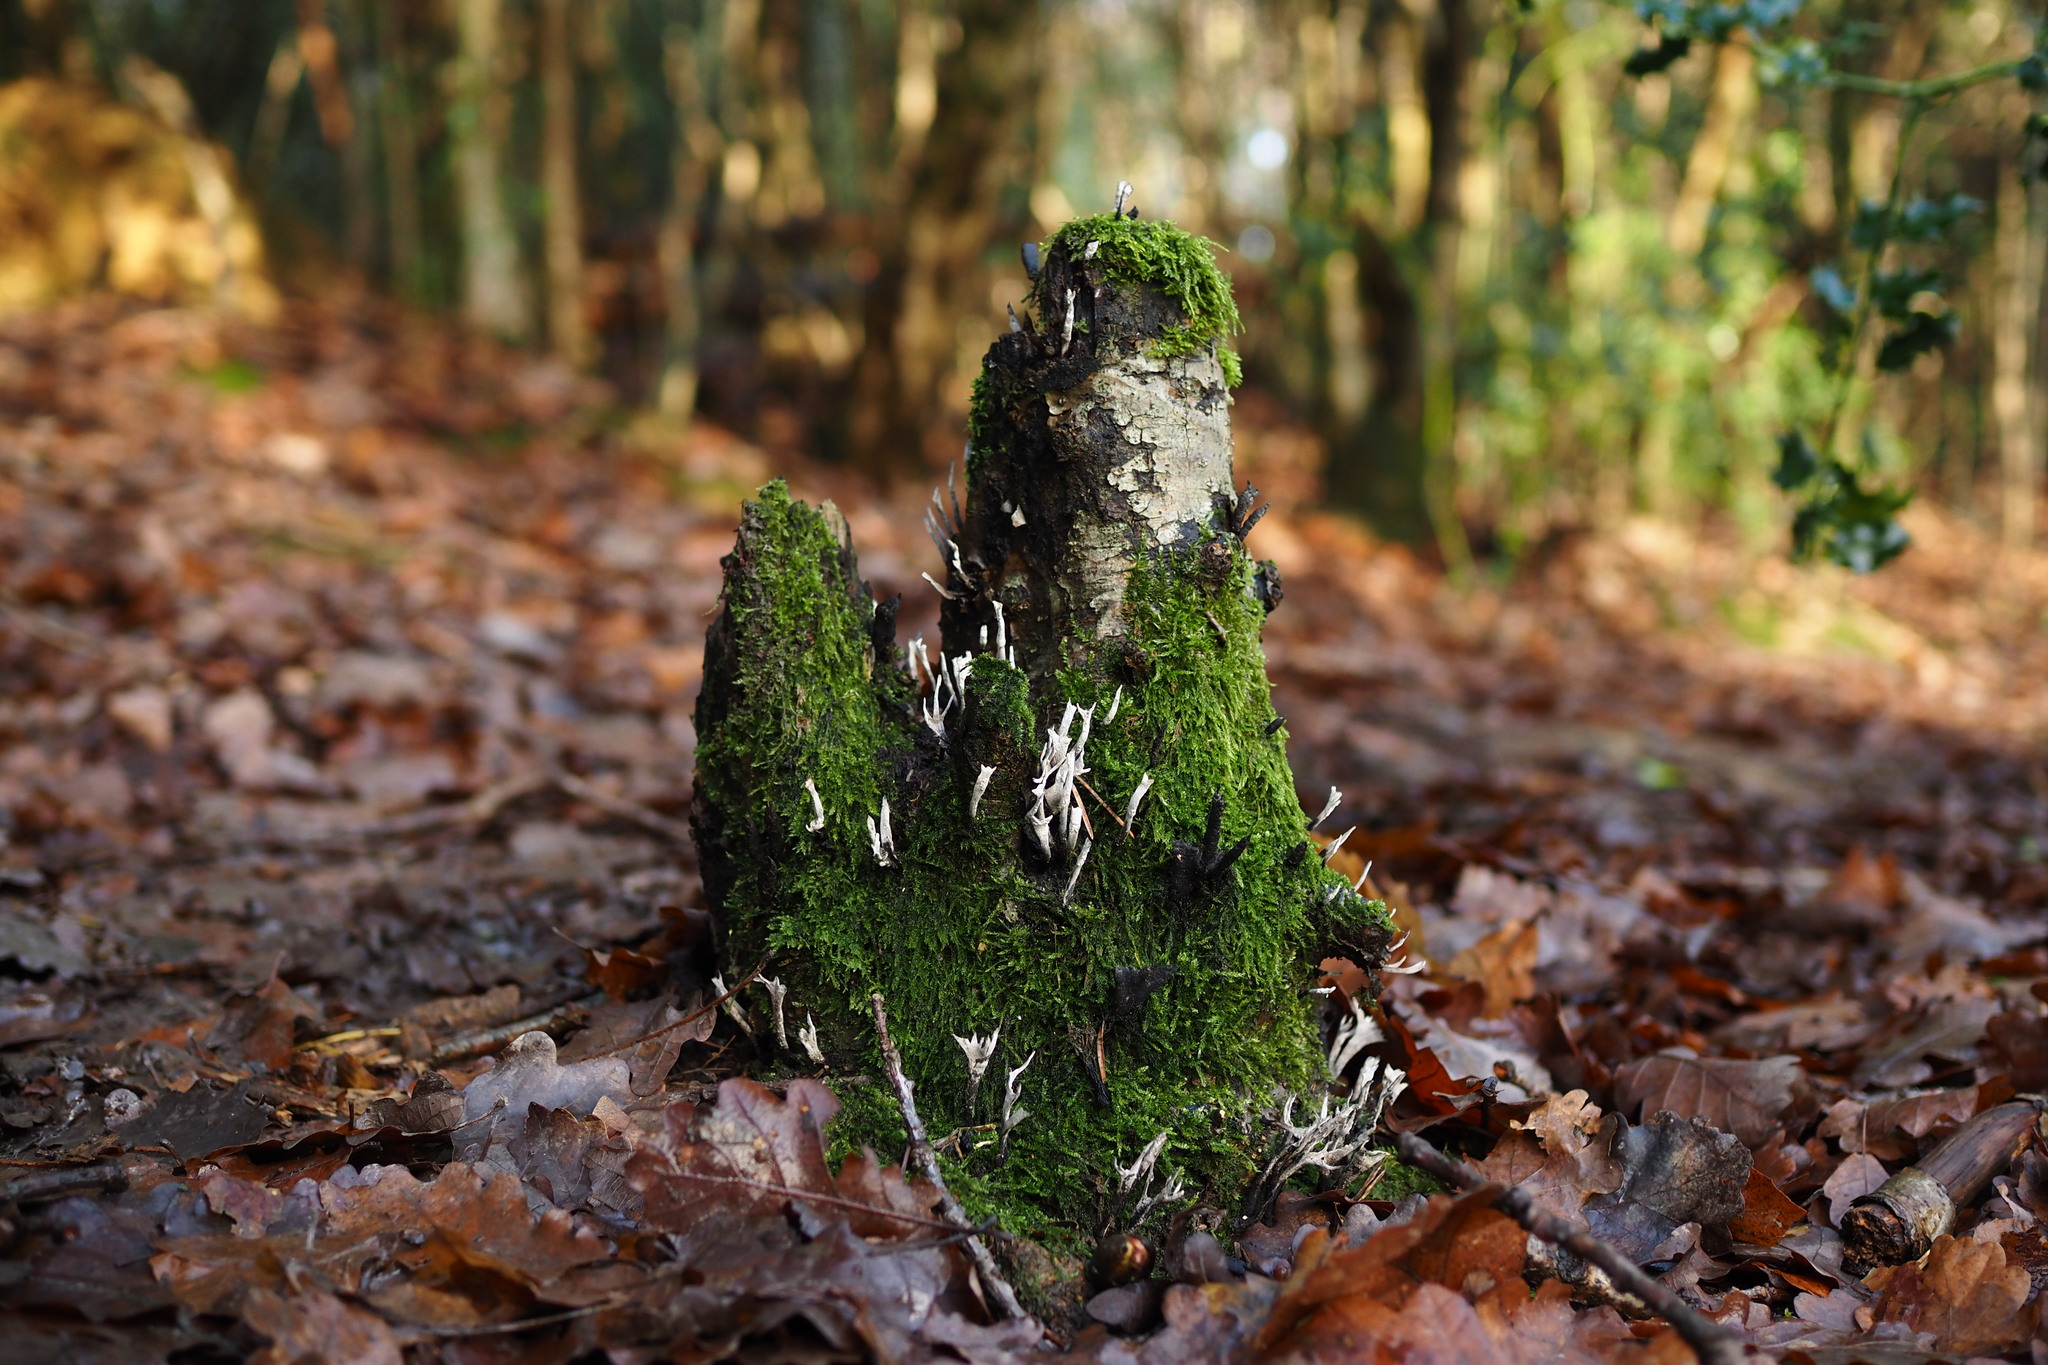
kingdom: Fungi
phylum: Ascomycota
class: Sordariomycetes
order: Xylariales
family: Xylariaceae
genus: Xylaria
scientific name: Xylaria hypoxylon
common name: Candle-snuff fungus
